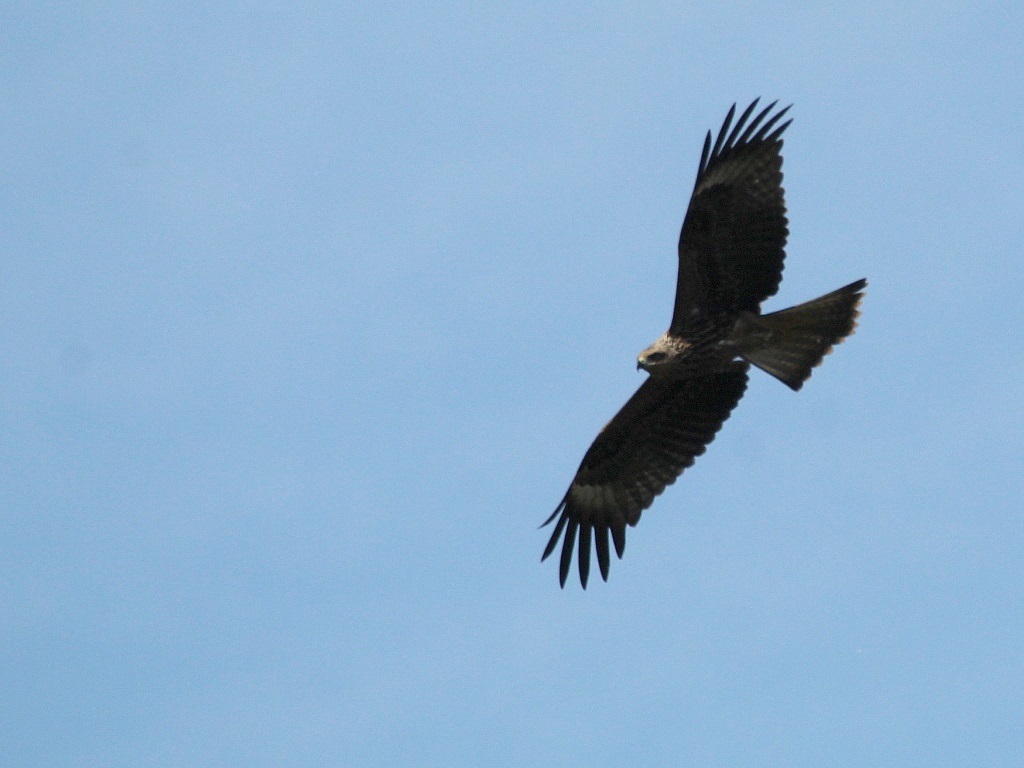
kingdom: Animalia
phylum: Chordata
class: Aves
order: Accipitriformes
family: Accipitridae
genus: Milvus
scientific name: Milvus migrans
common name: Black kite
